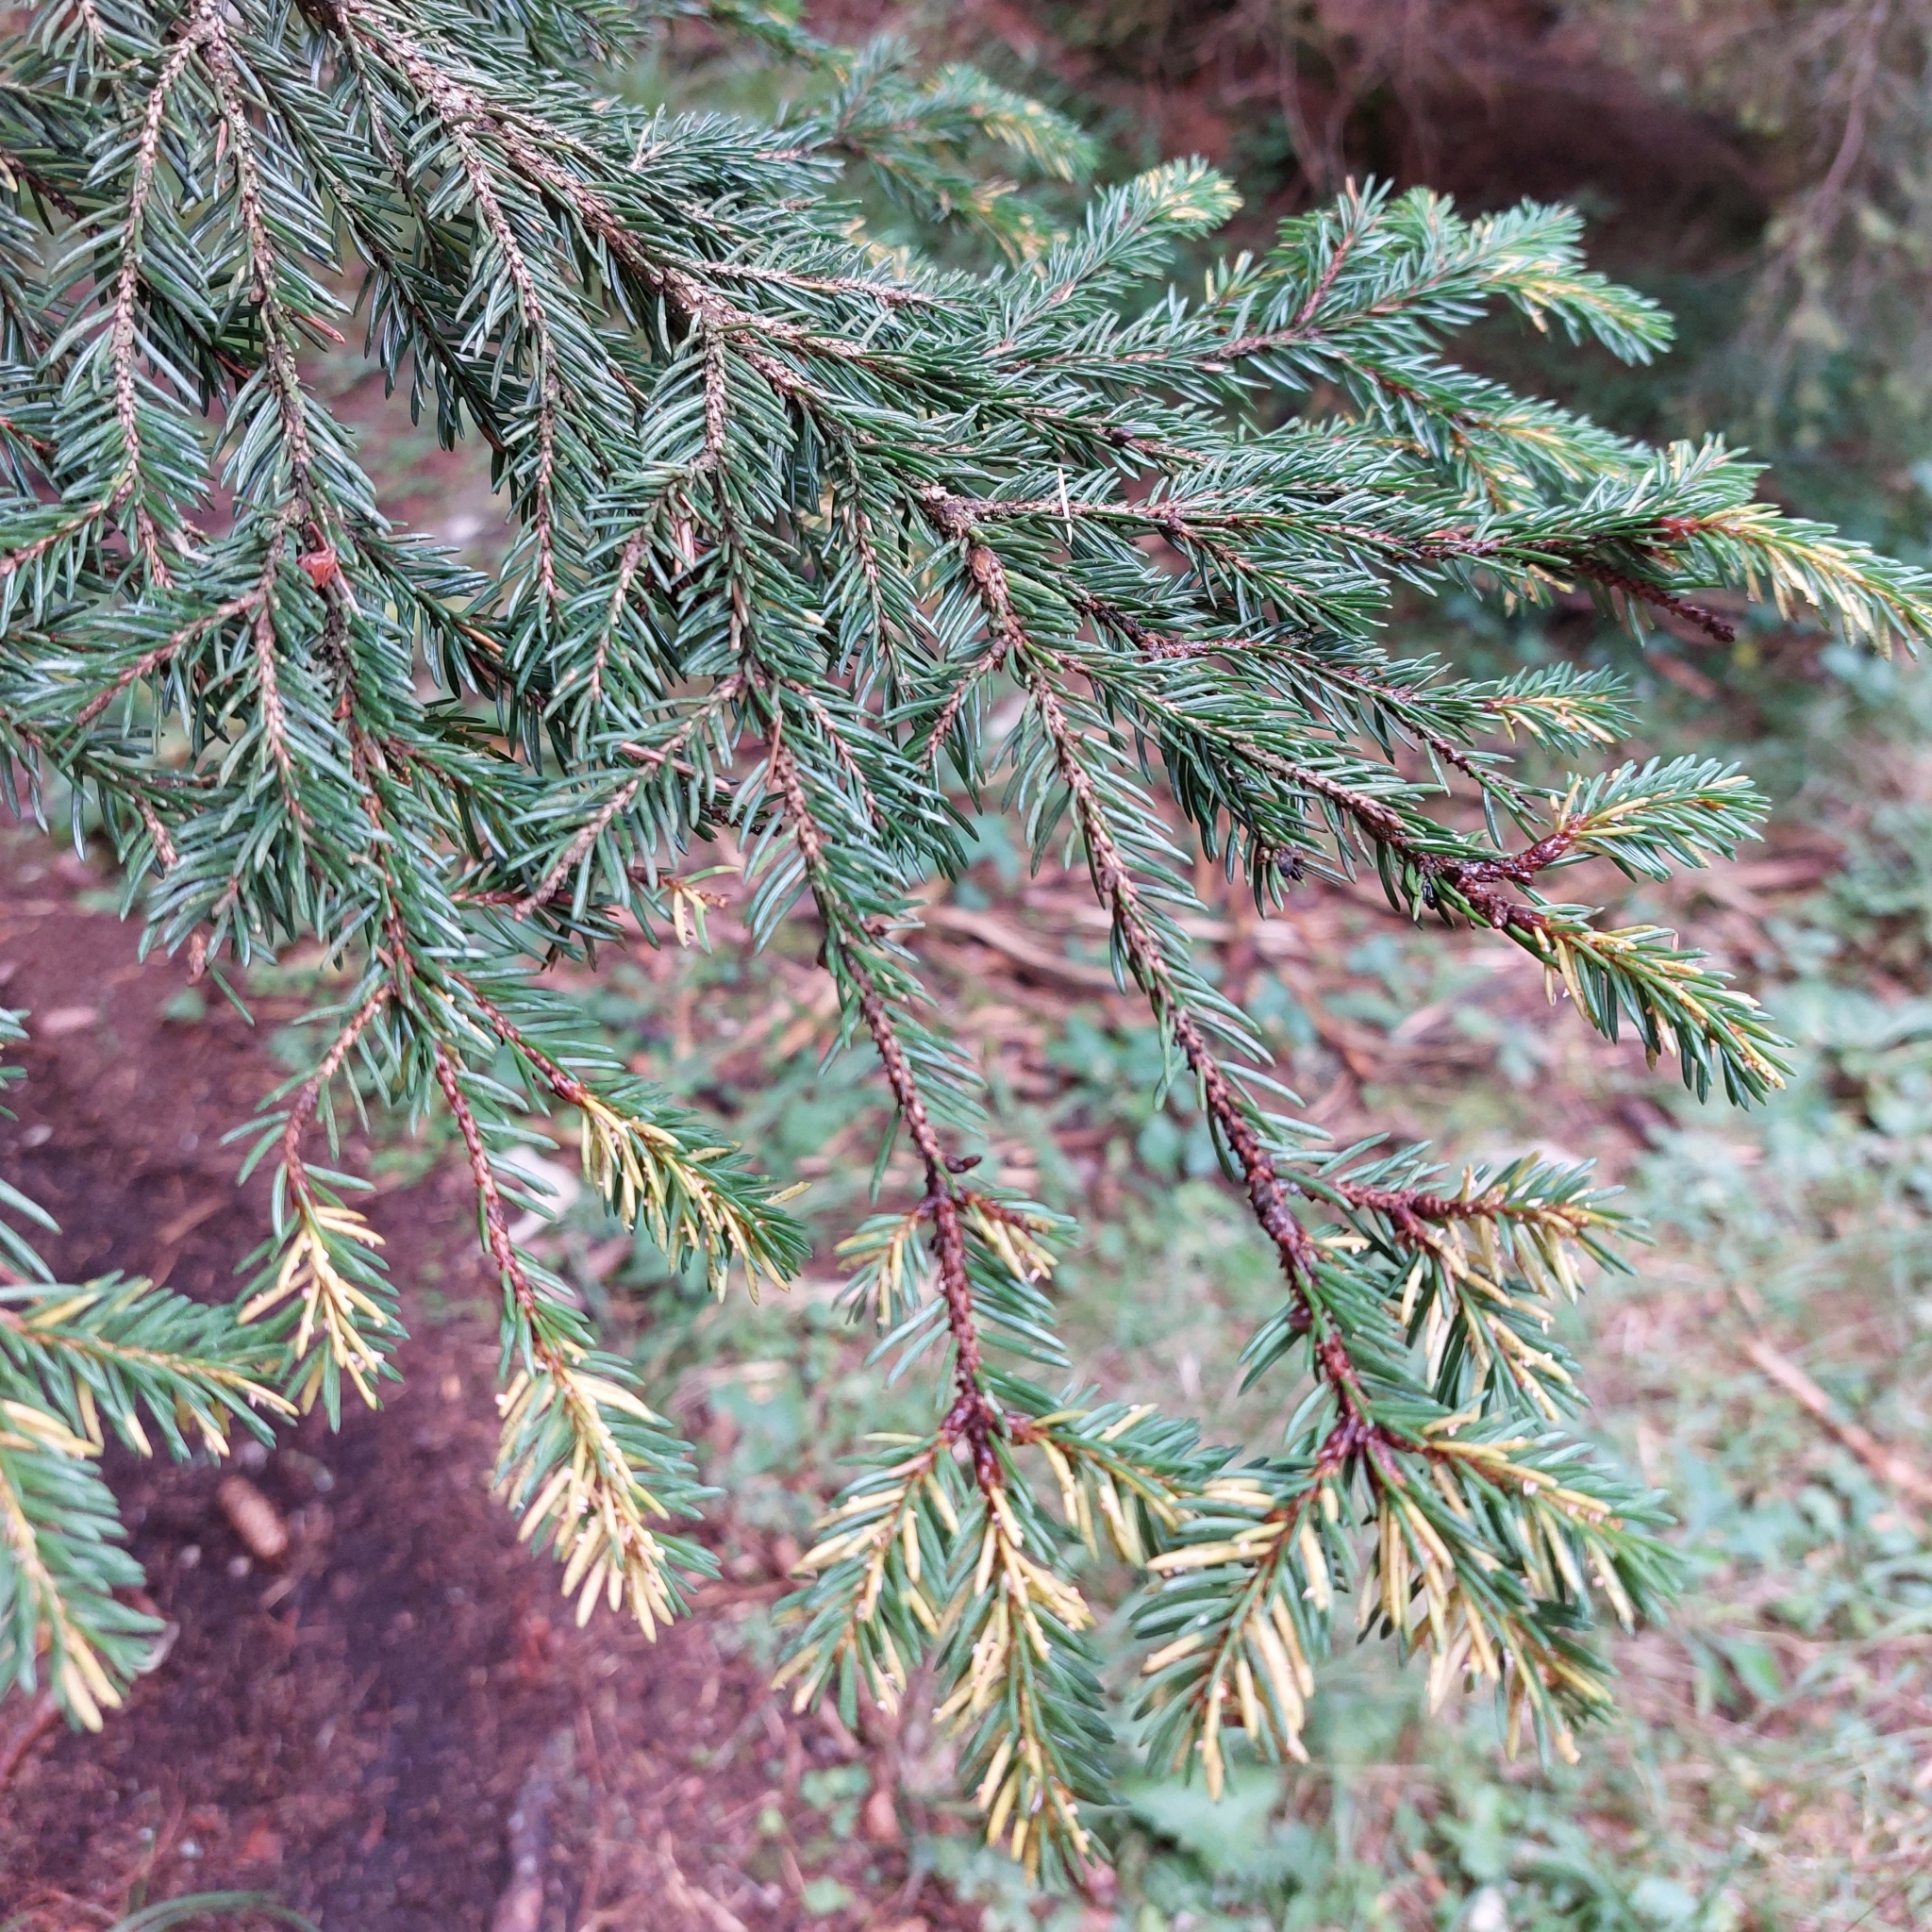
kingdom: Plantae
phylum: Tracheophyta
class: Pinopsida
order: Pinales
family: Pinaceae
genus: Picea
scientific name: Picea abies
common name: Norway spruce
